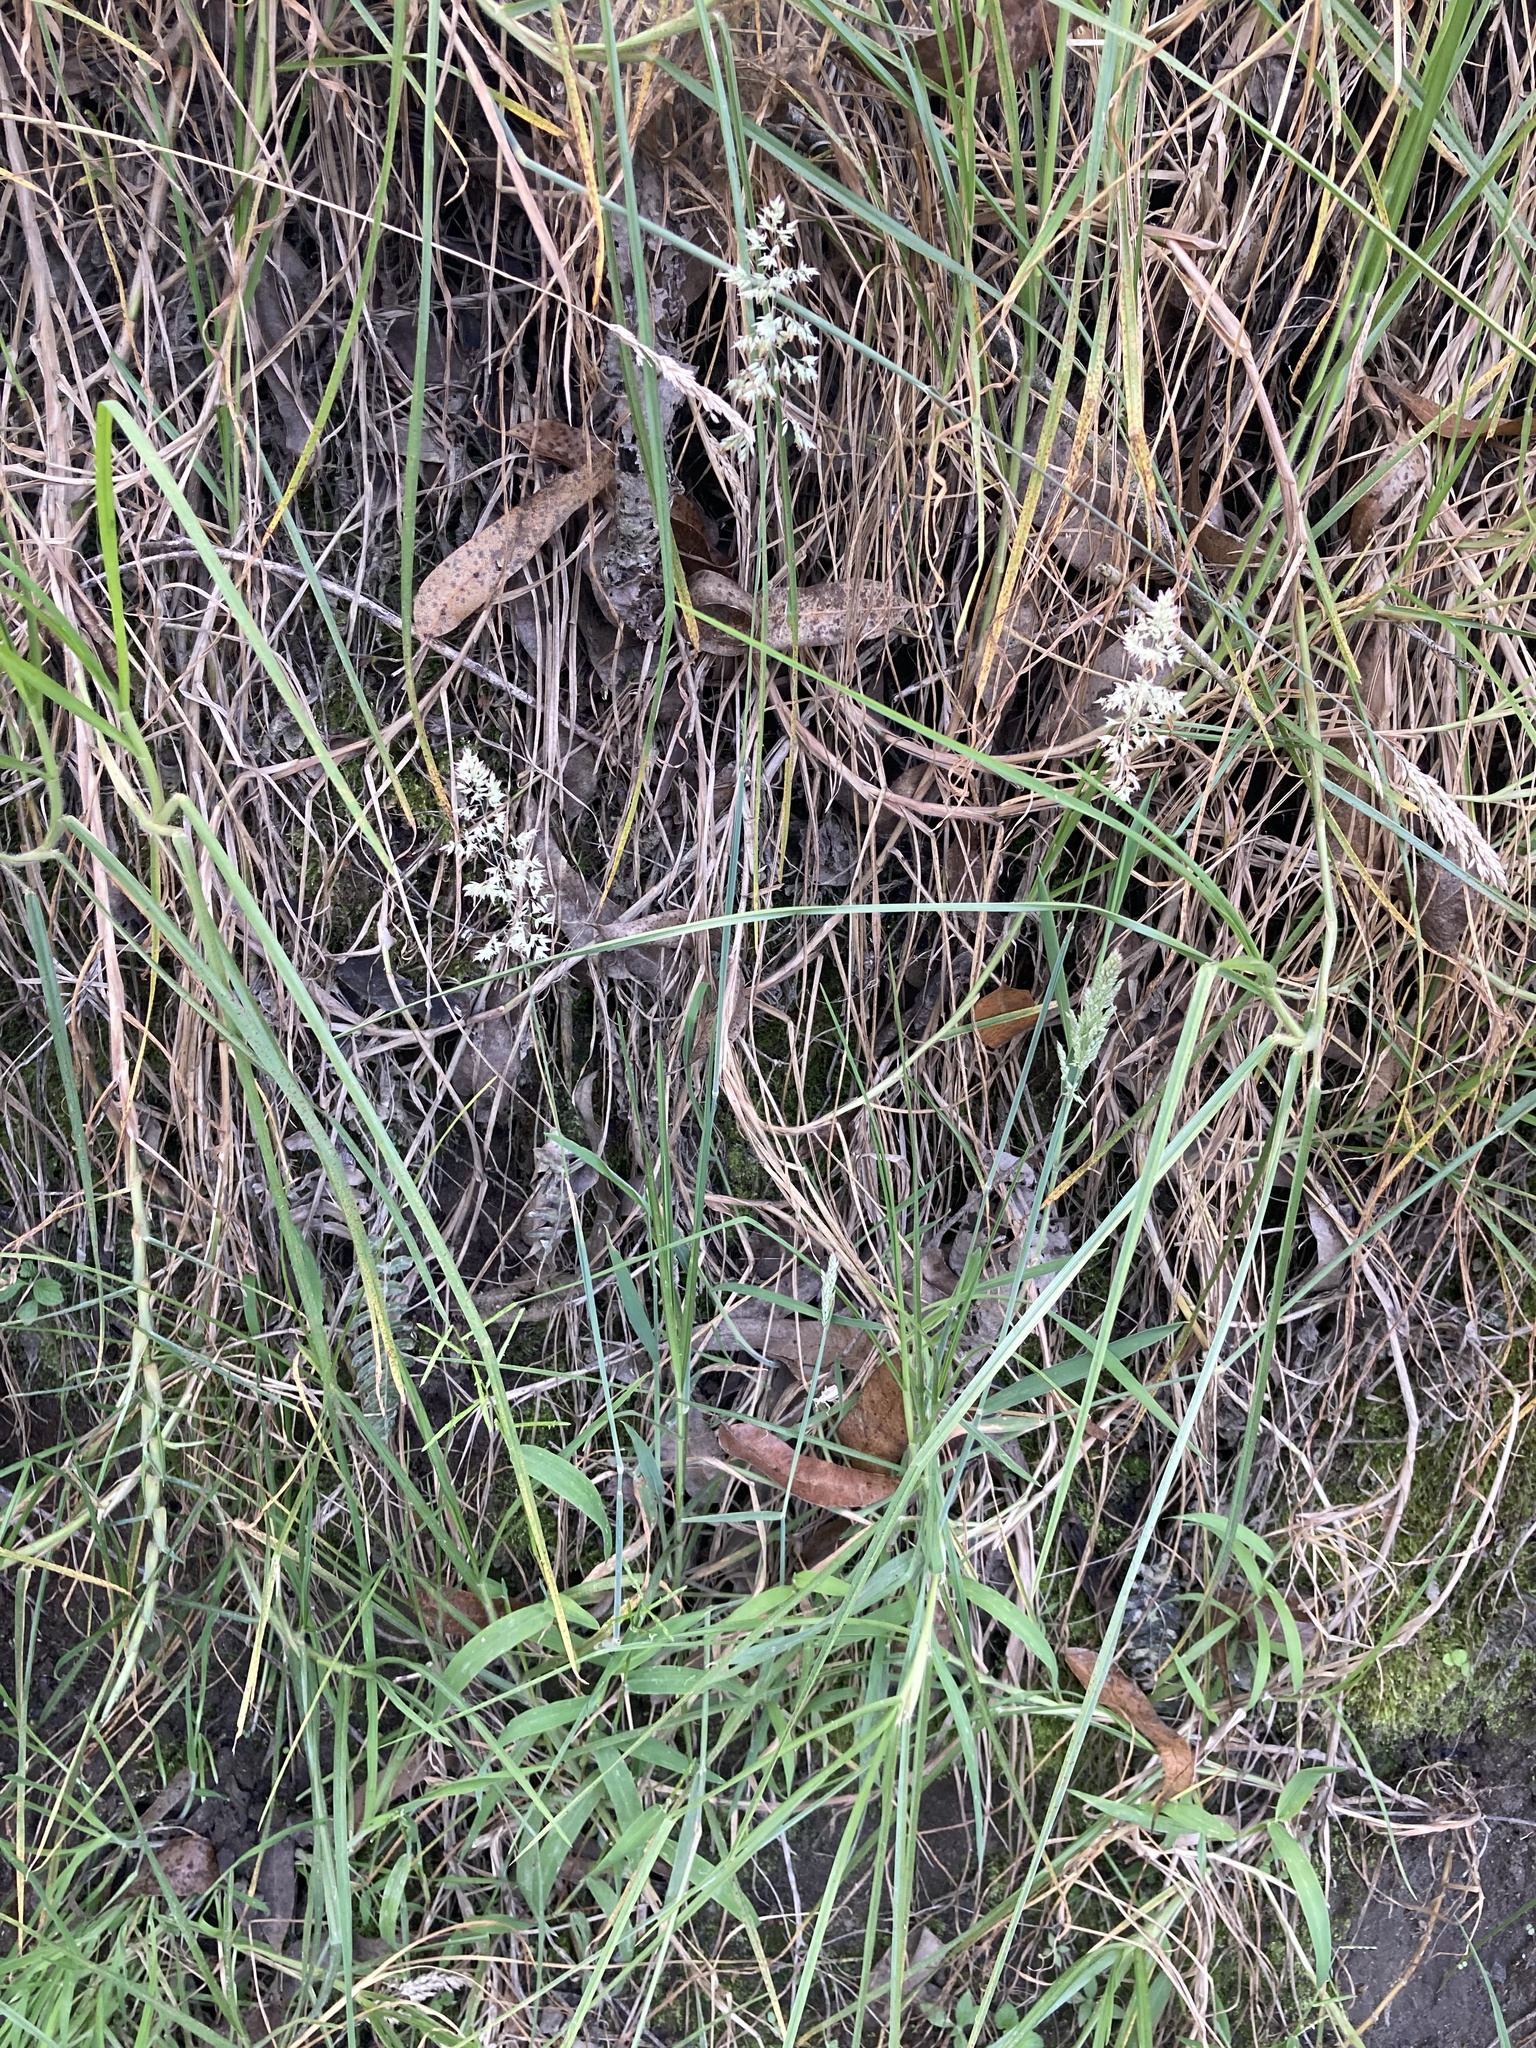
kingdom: Plantae
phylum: Tracheophyta
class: Liliopsida
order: Poales
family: Poaceae
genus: Holcus
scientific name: Holcus lanatus
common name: Yorkshire-fog
